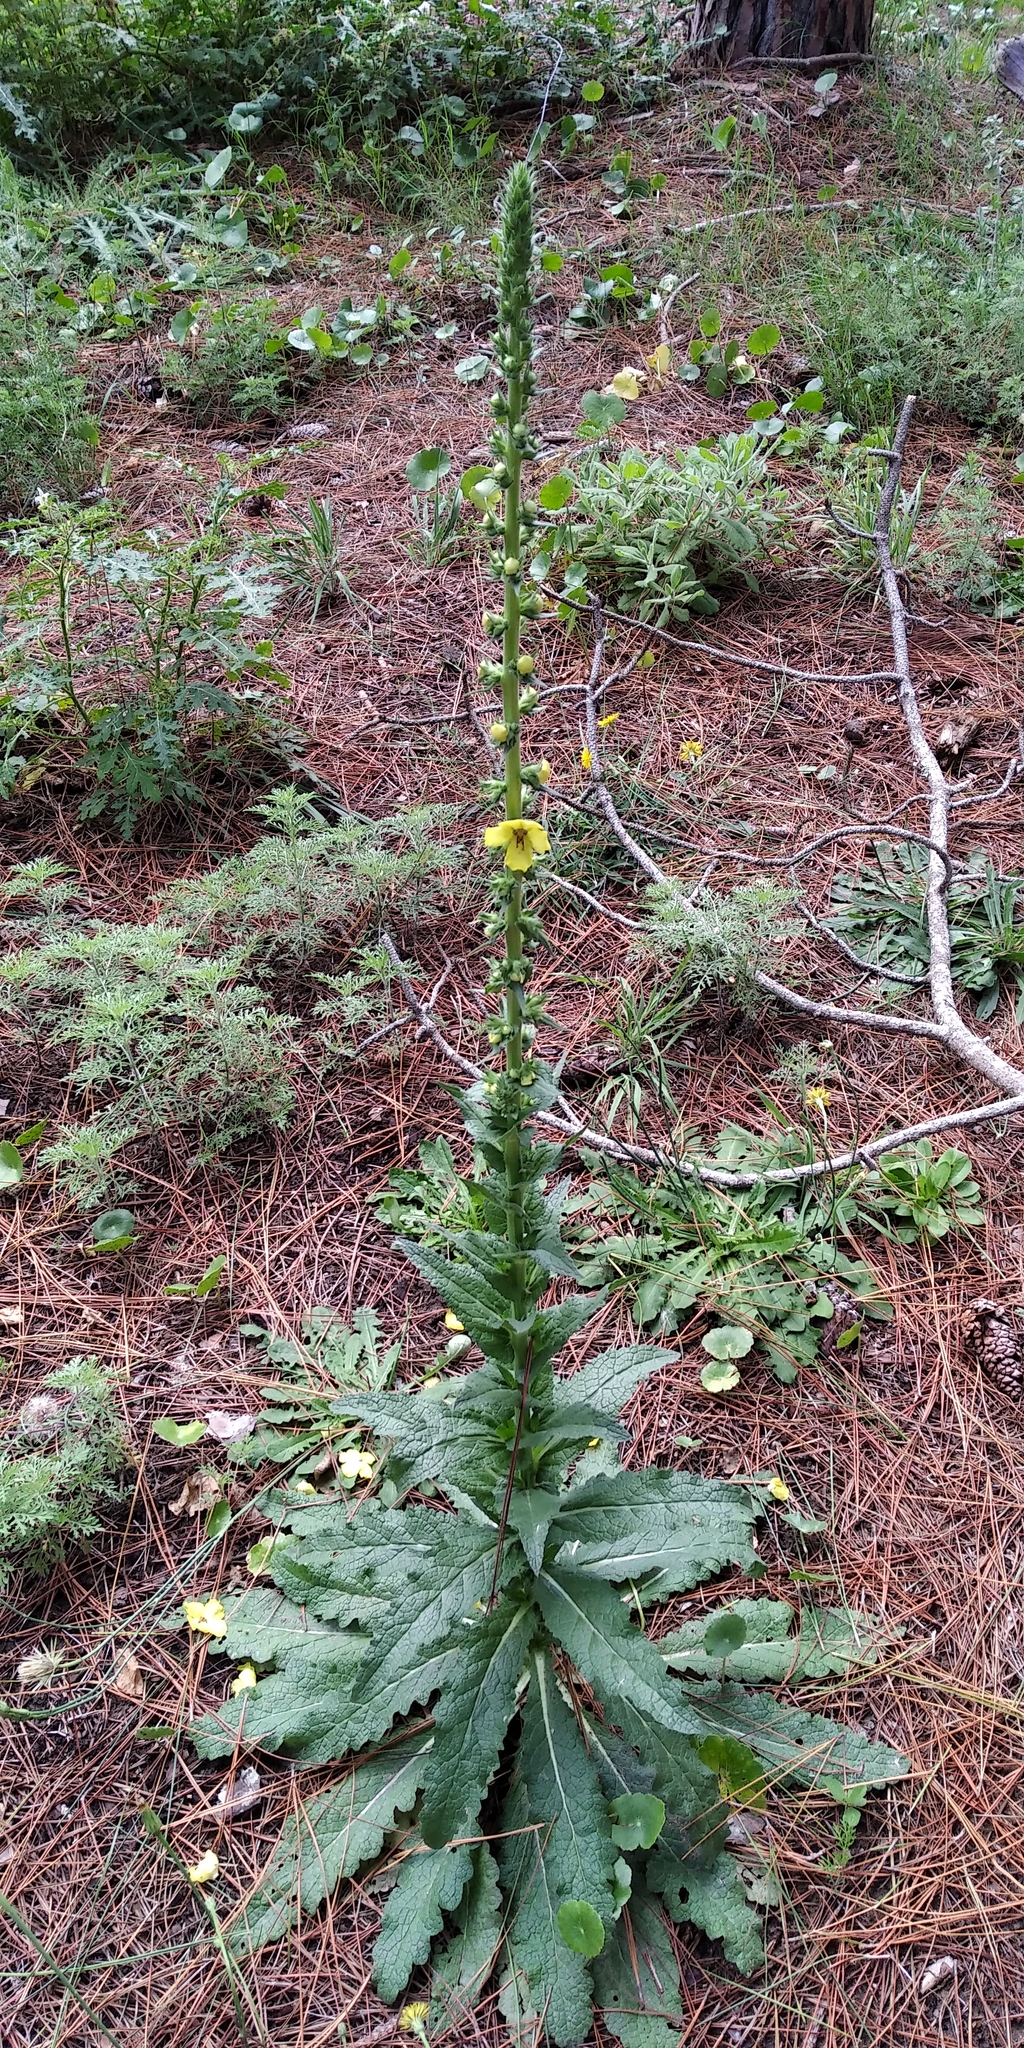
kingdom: Plantae
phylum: Tracheophyta
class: Magnoliopsida
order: Lamiales
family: Scrophulariaceae
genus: Verbascum
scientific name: Verbascum virgatum
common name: Twiggy mullein
